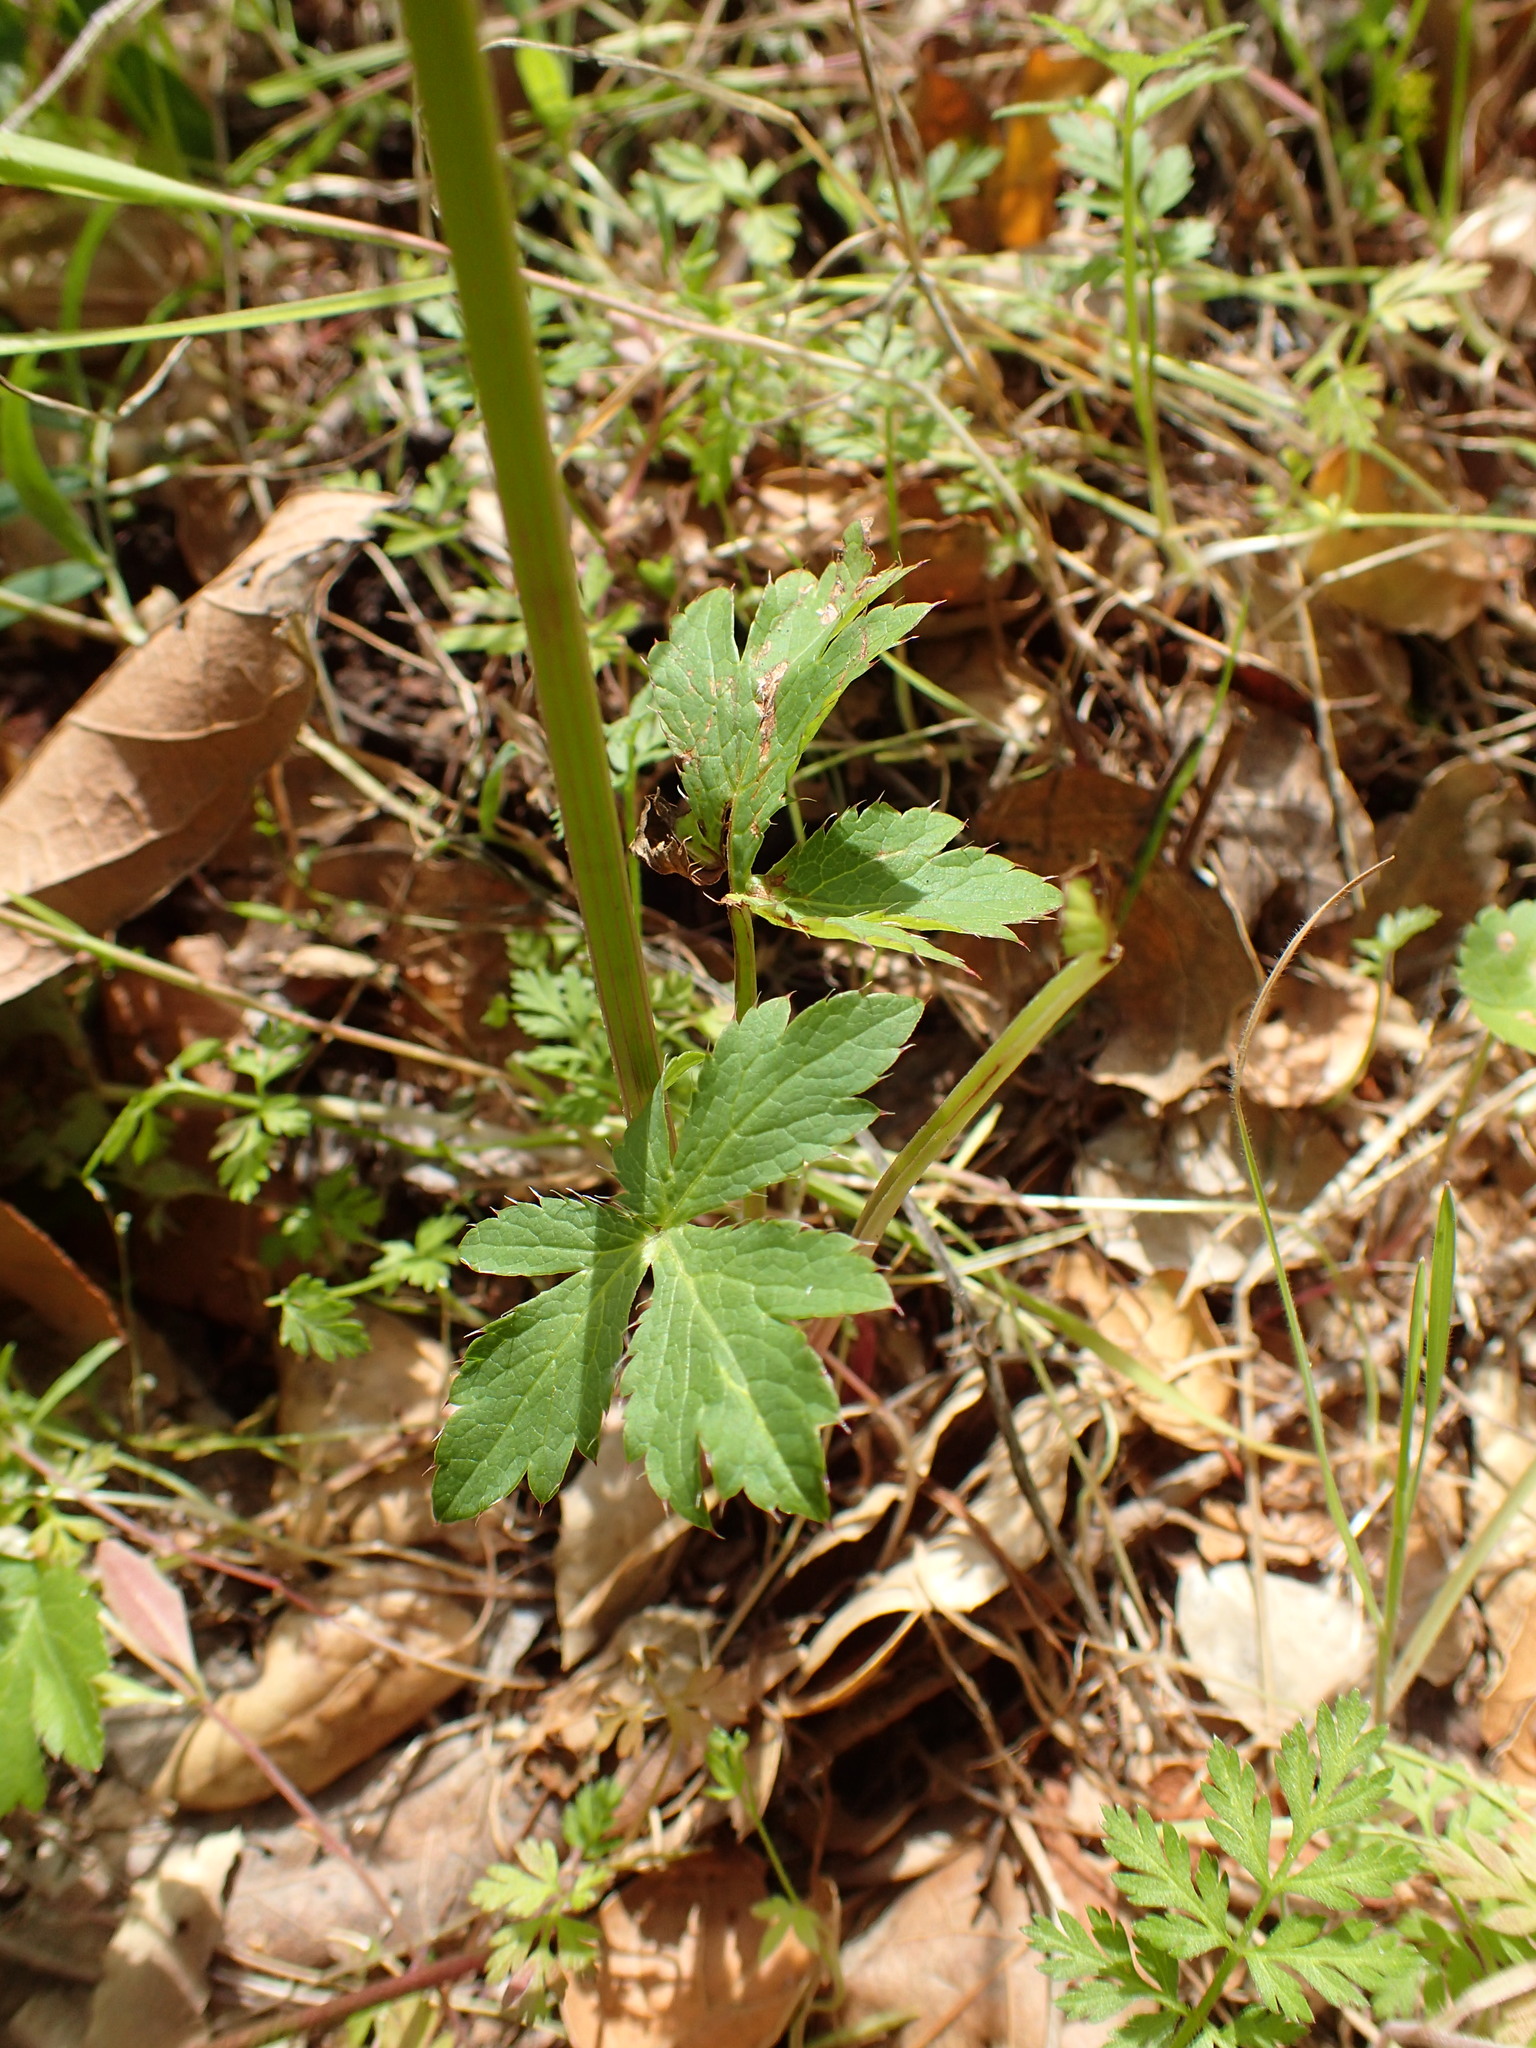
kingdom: Plantae
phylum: Tracheophyta
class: Magnoliopsida
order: Apiales
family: Apiaceae
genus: Sanicula
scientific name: Sanicula crassicaulis
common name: Western snakeroot
